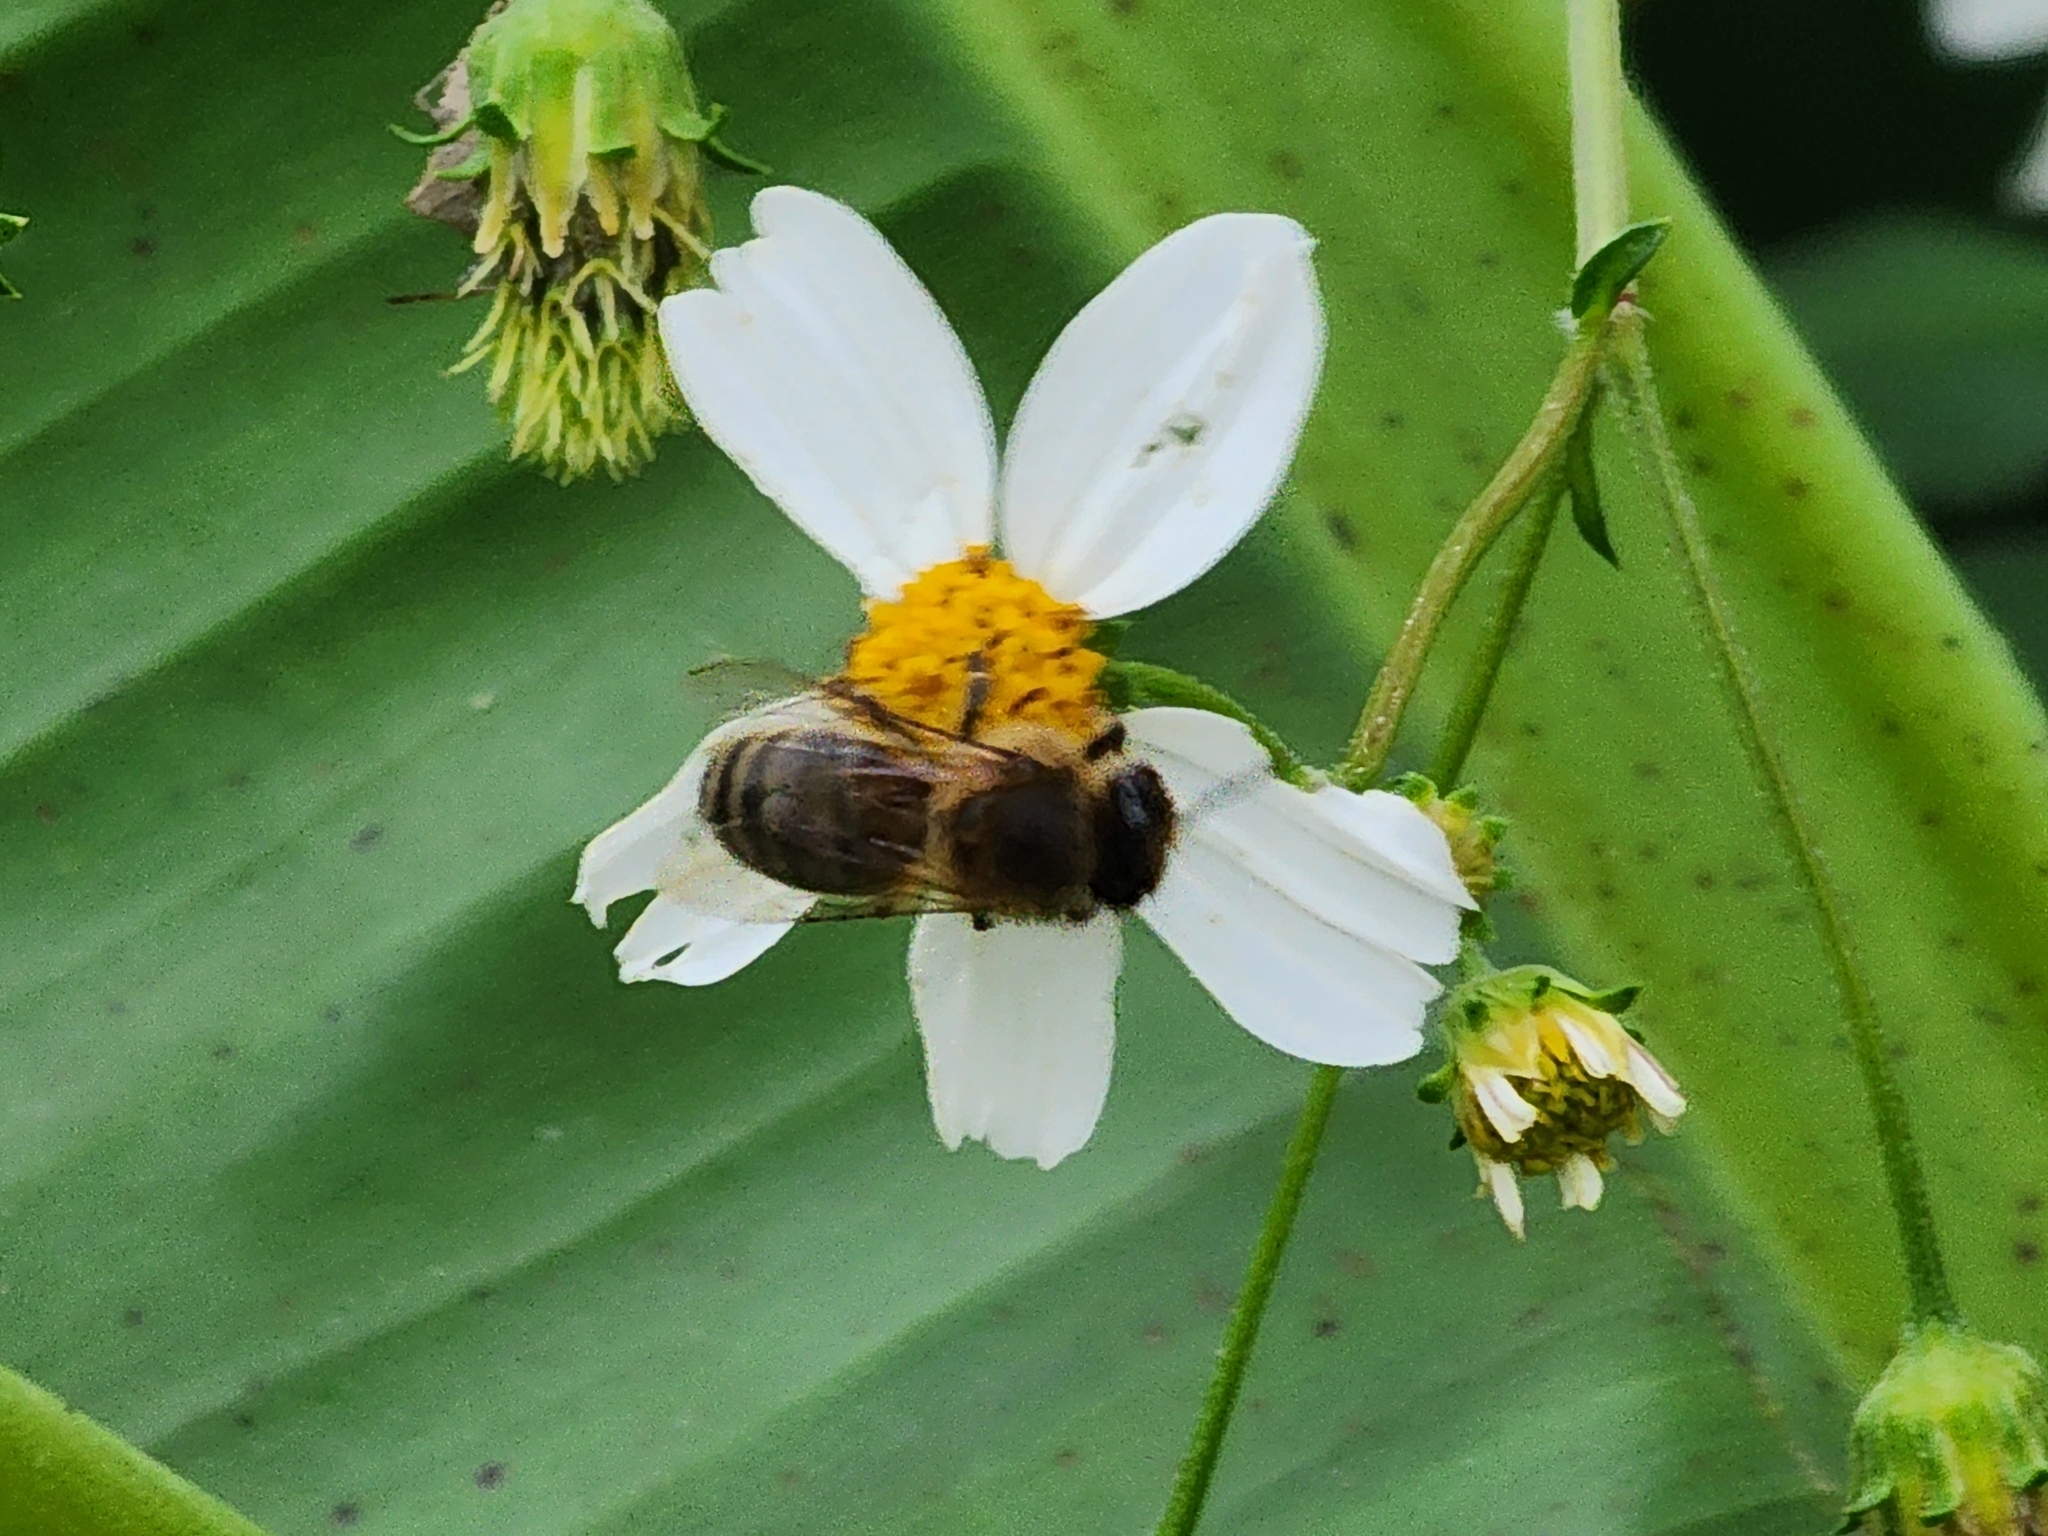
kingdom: Animalia
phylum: Arthropoda
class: Insecta
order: Hymenoptera
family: Apidae
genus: Apis
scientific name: Apis mellifera
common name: Honey bee
